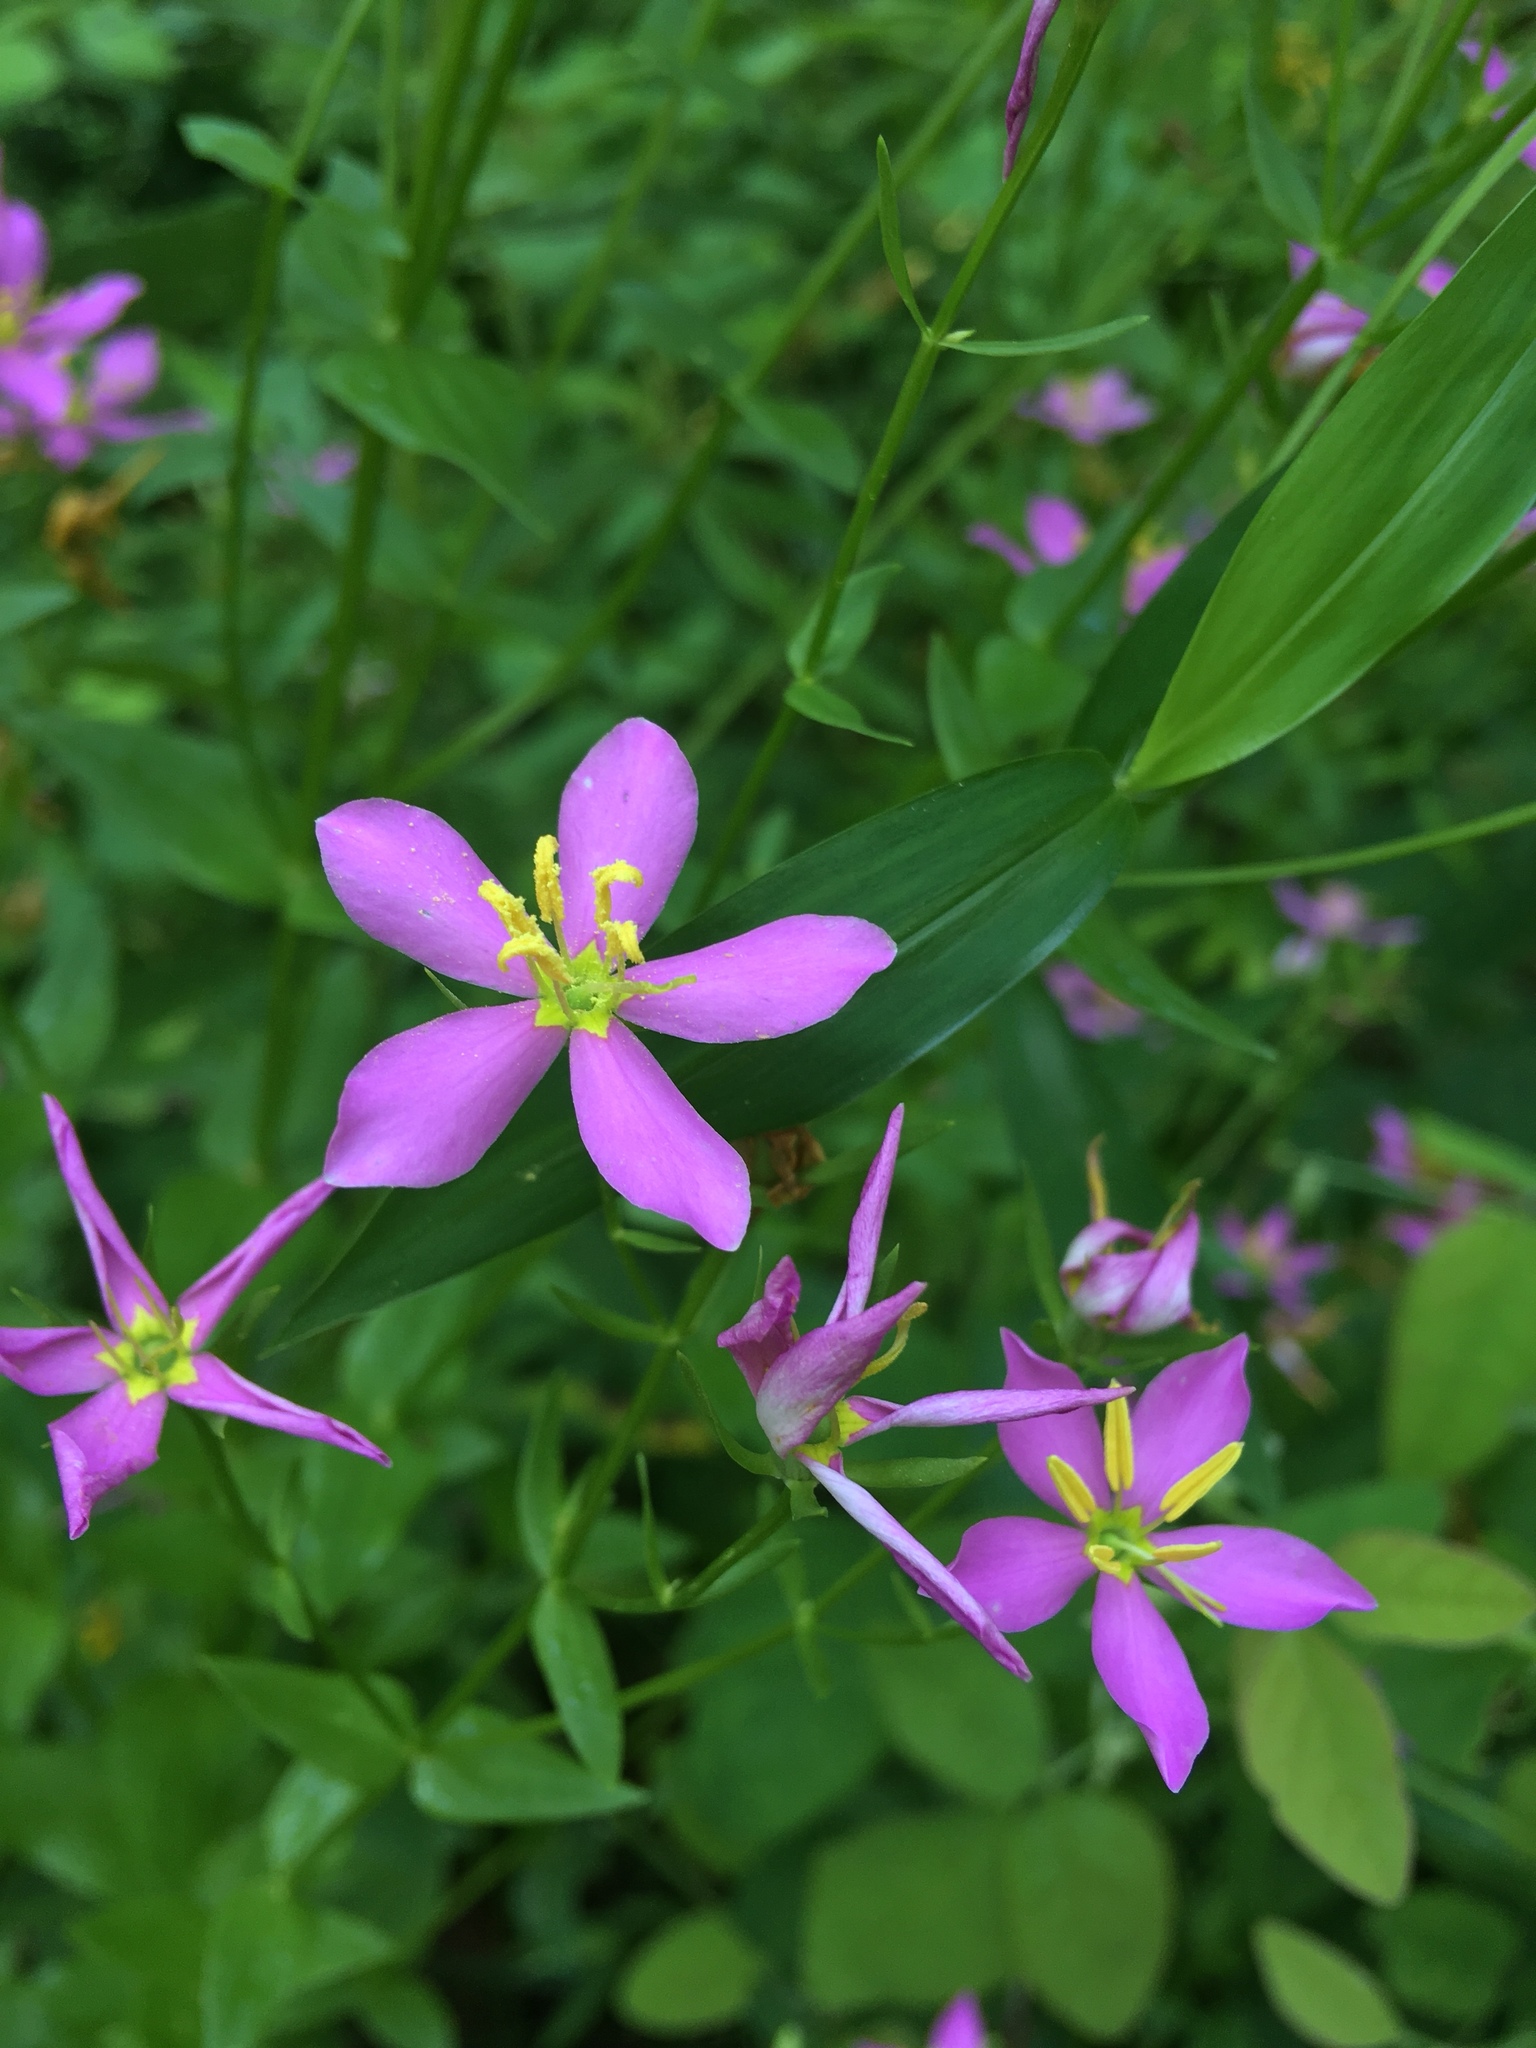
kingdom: Plantae
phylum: Tracheophyta
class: Magnoliopsida
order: Gentianales
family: Gentianaceae
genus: Sabatia
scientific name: Sabatia angularis
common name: Rose-pink
